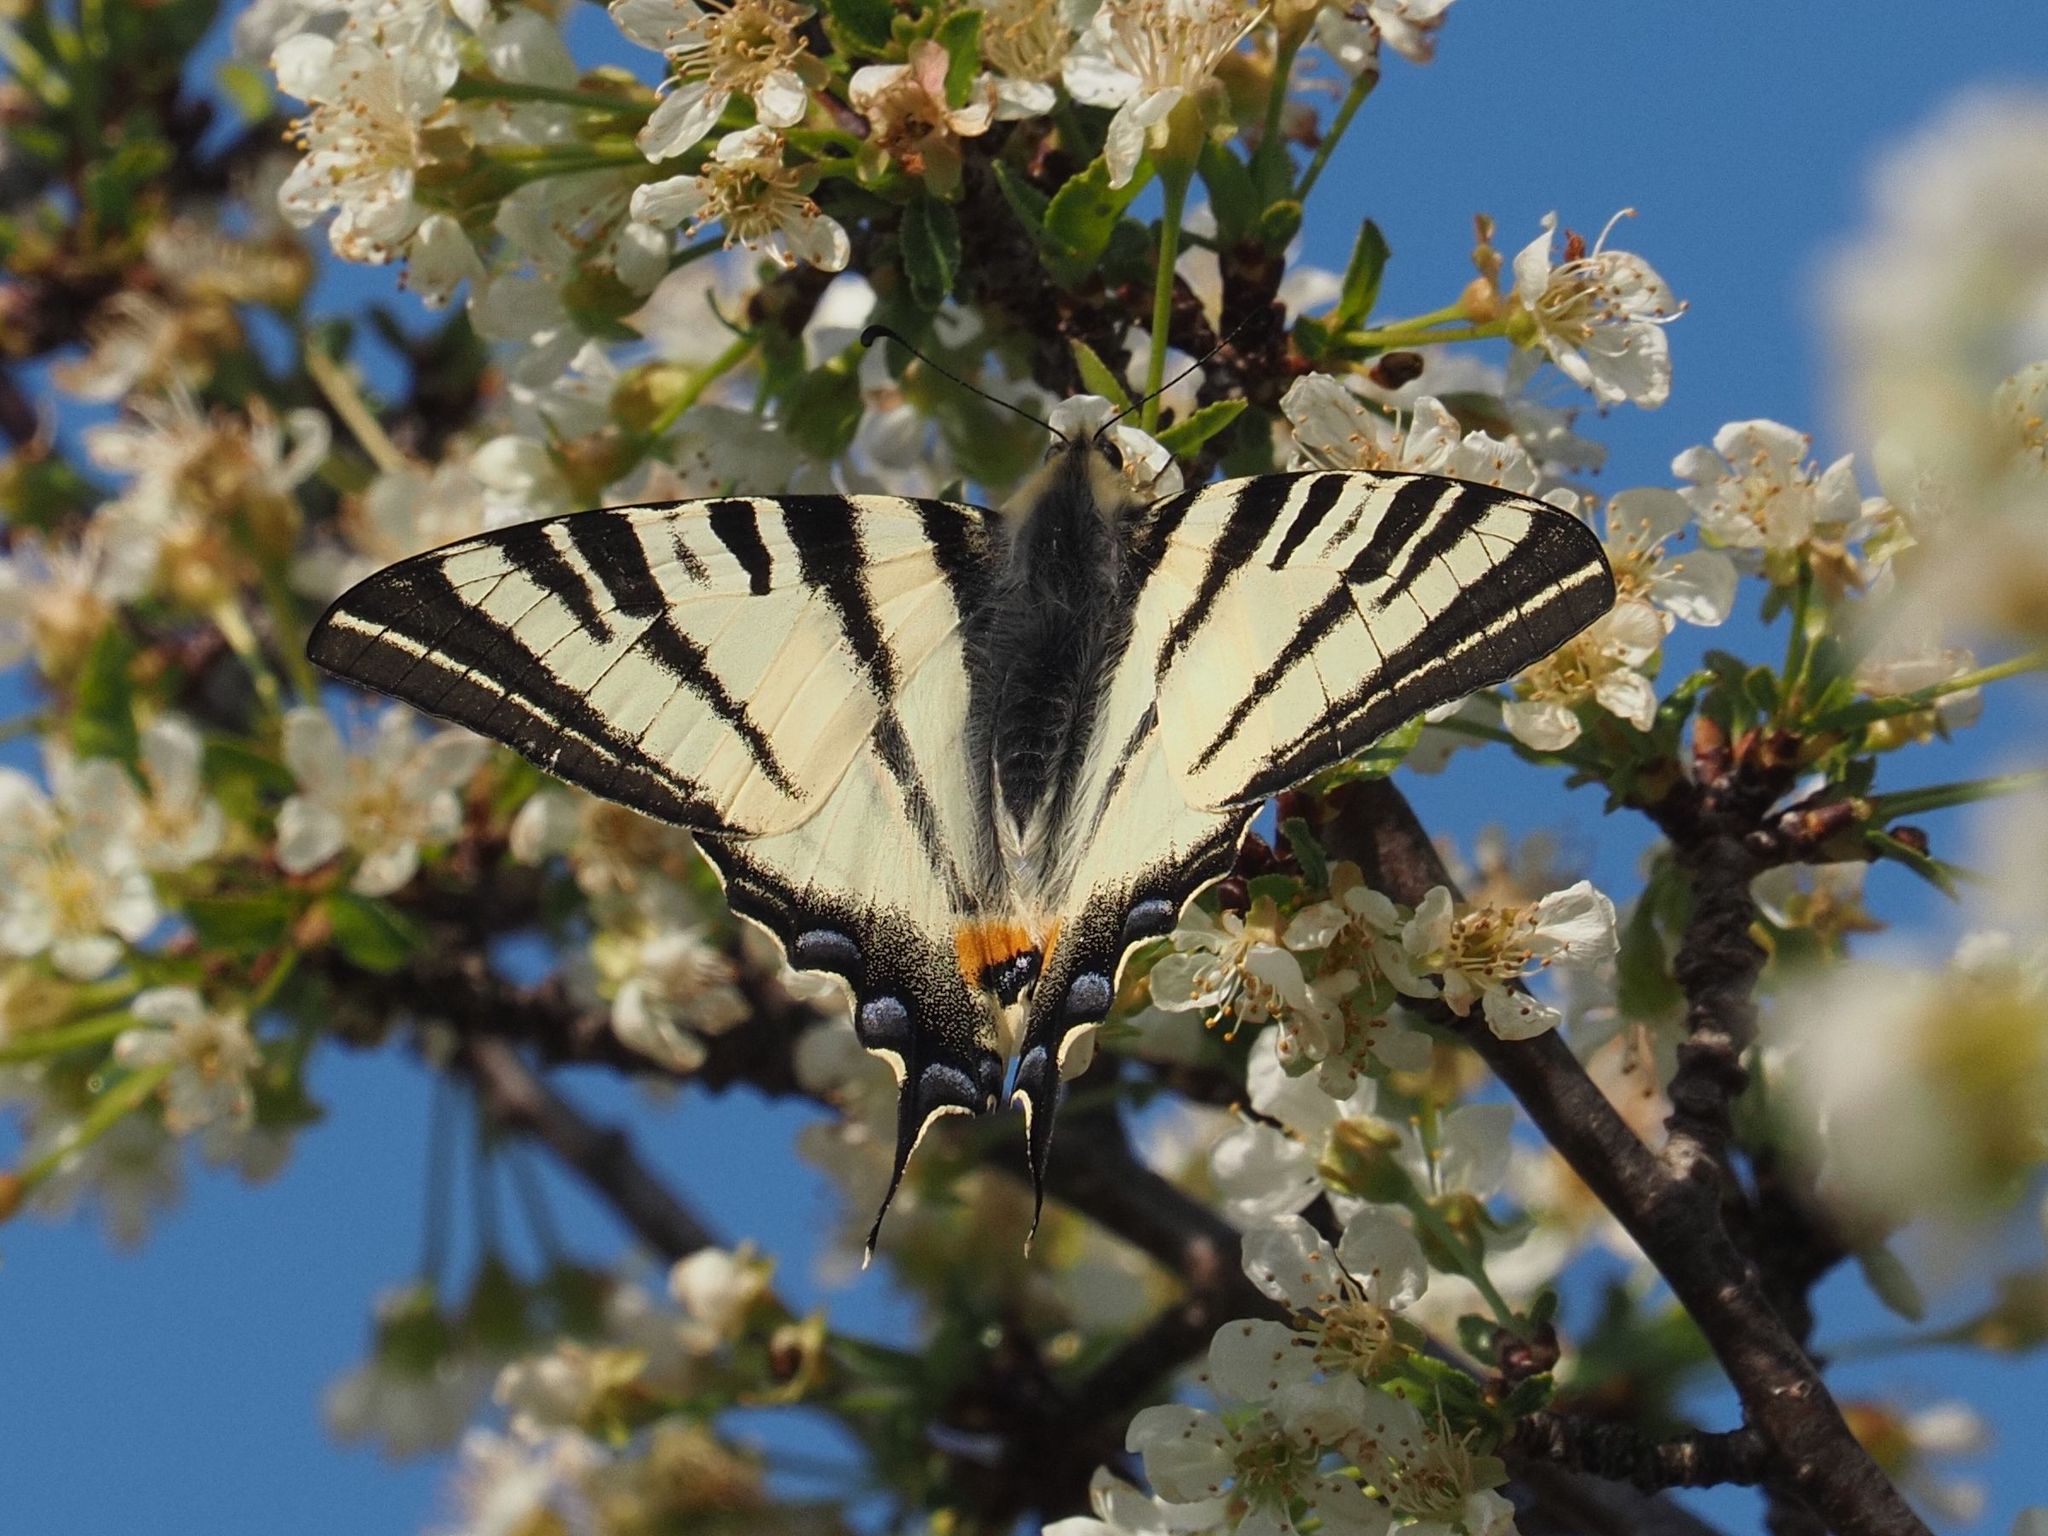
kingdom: Animalia
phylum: Arthropoda
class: Insecta
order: Lepidoptera
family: Papilionidae
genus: Iphiclides
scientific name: Iphiclides podalirius
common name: Scarce swallowtail
